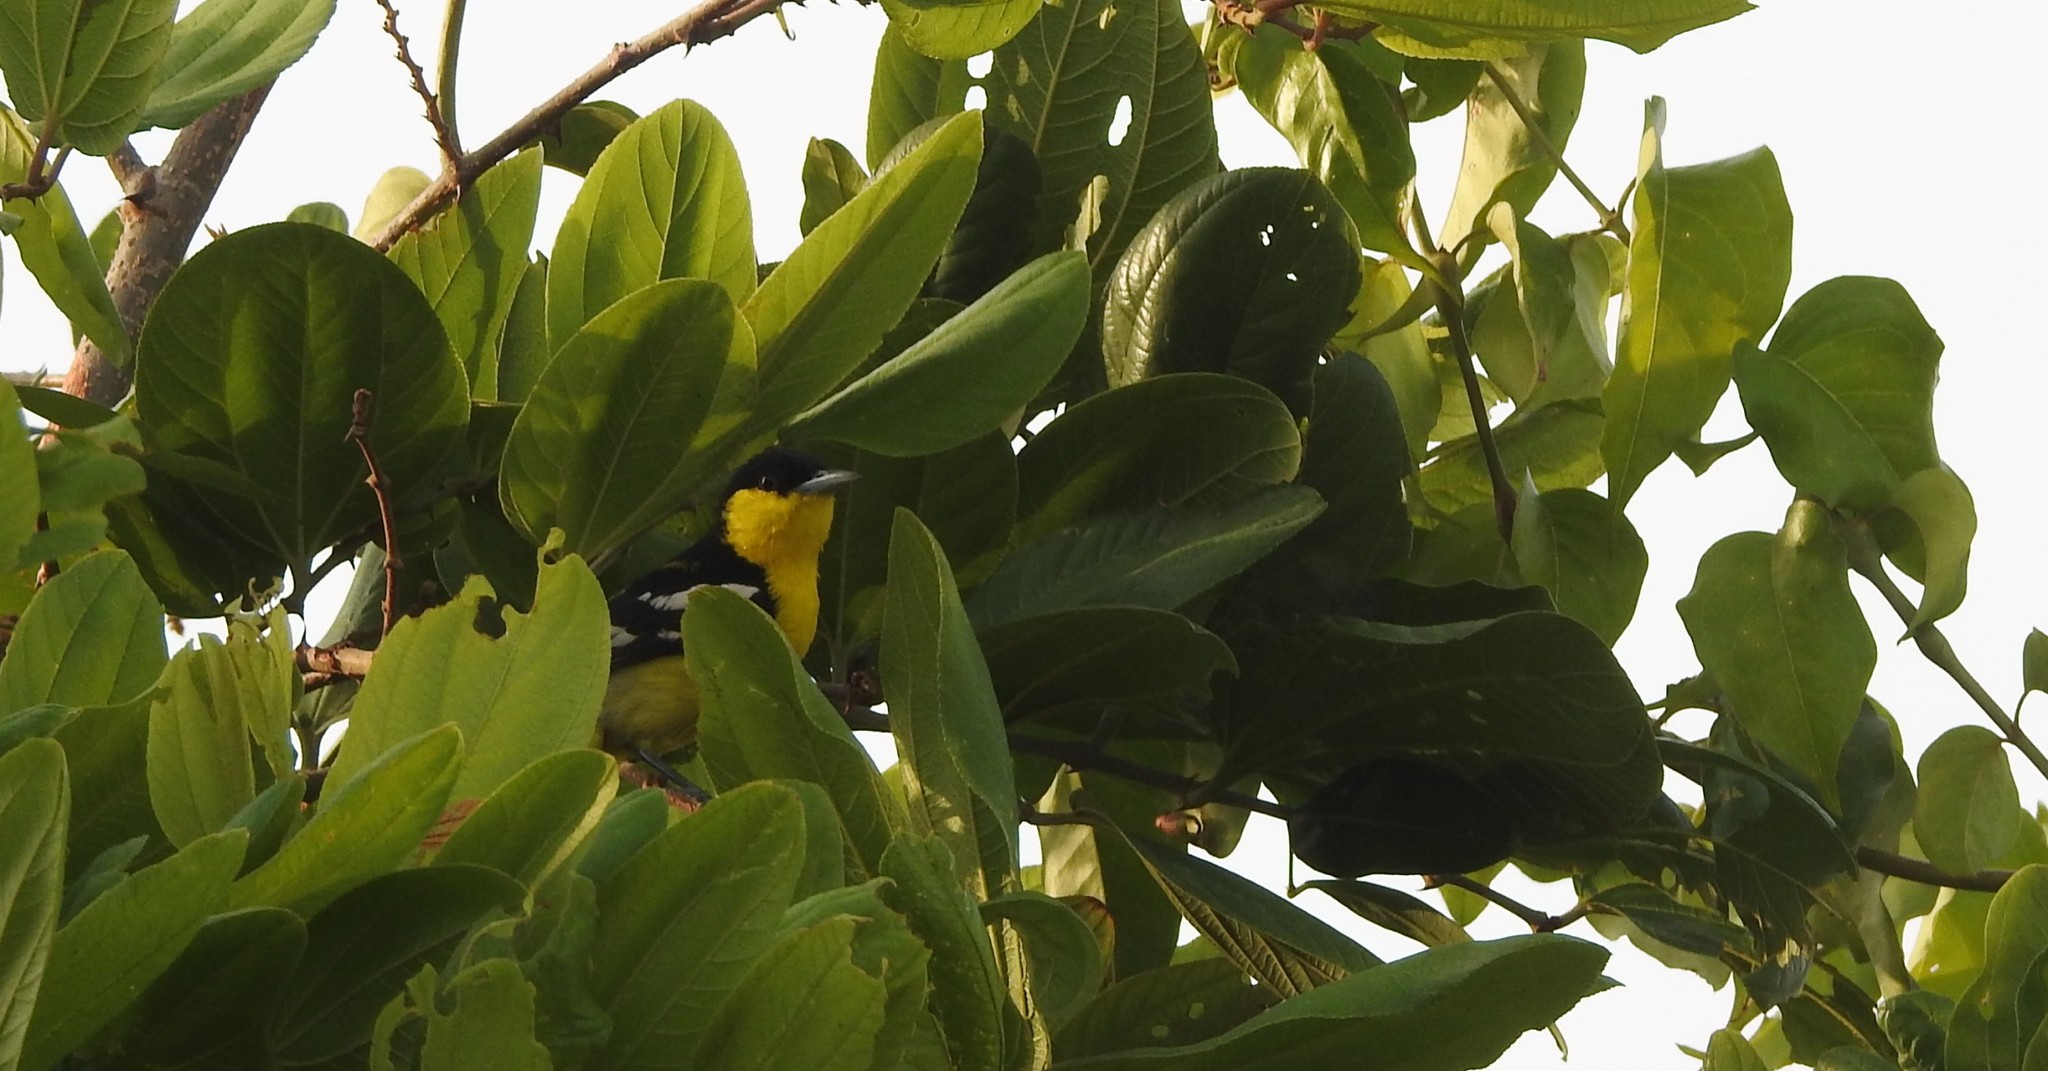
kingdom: Animalia
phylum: Chordata
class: Aves
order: Passeriformes
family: Aegithinidae
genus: Aegithina
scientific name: Aegithina tiphia
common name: Common iora
